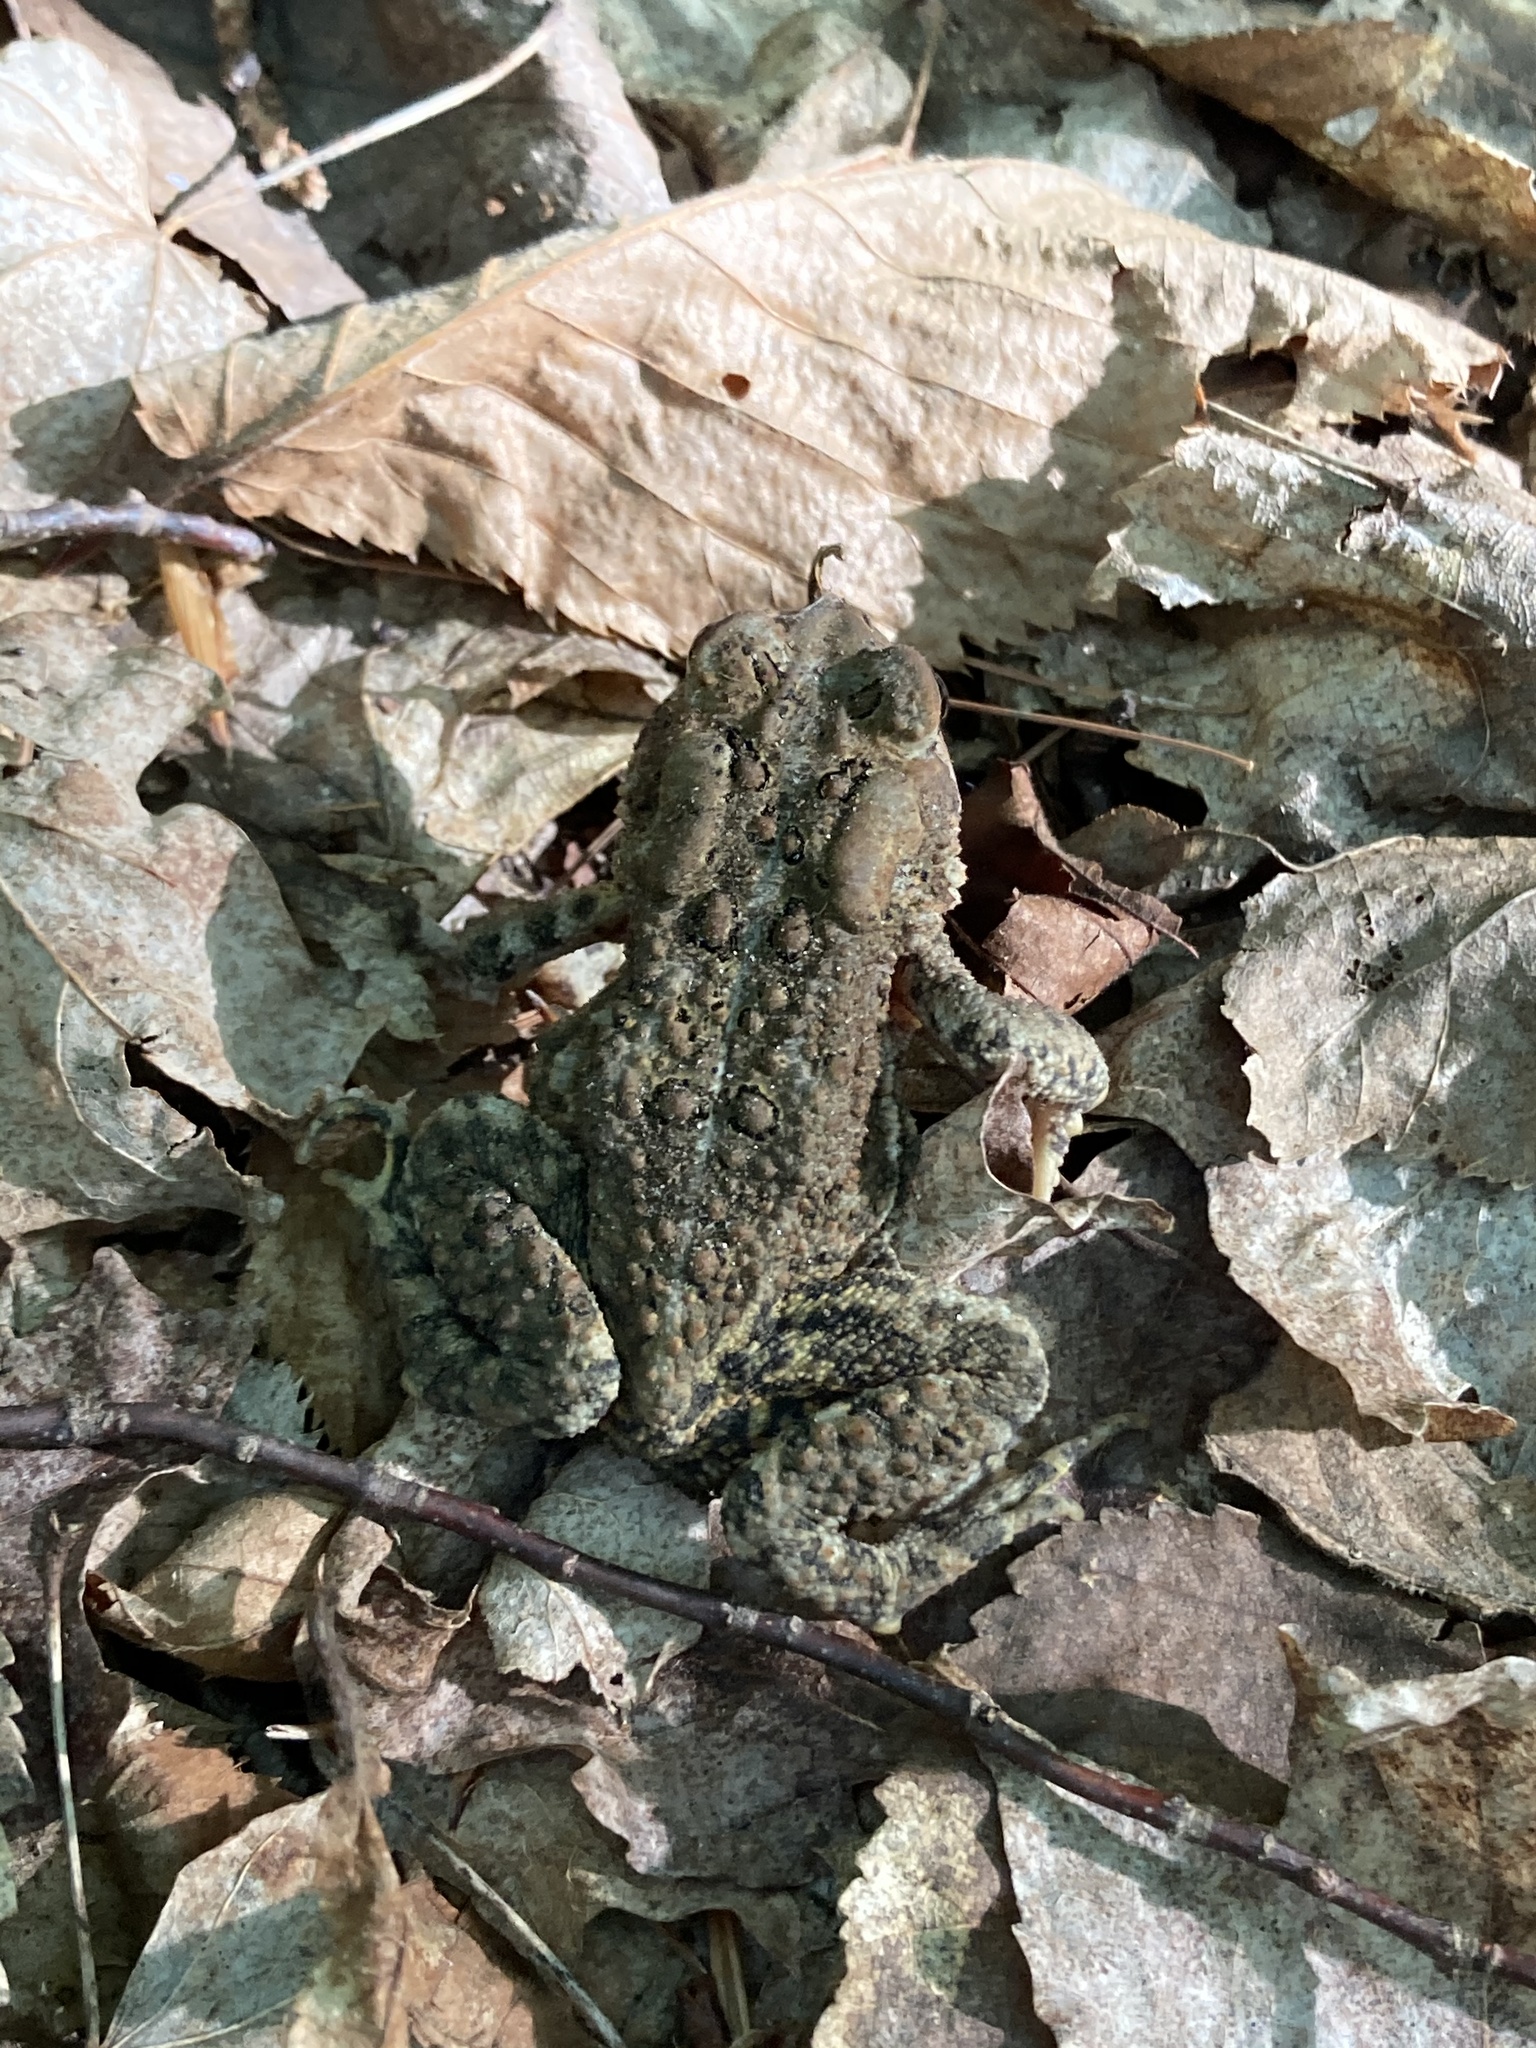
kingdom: Animalia
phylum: Chordata
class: Amphibia
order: Anura
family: Bufonidae
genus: Anaxyrus
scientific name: Anaxyrus americanus
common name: American toad
